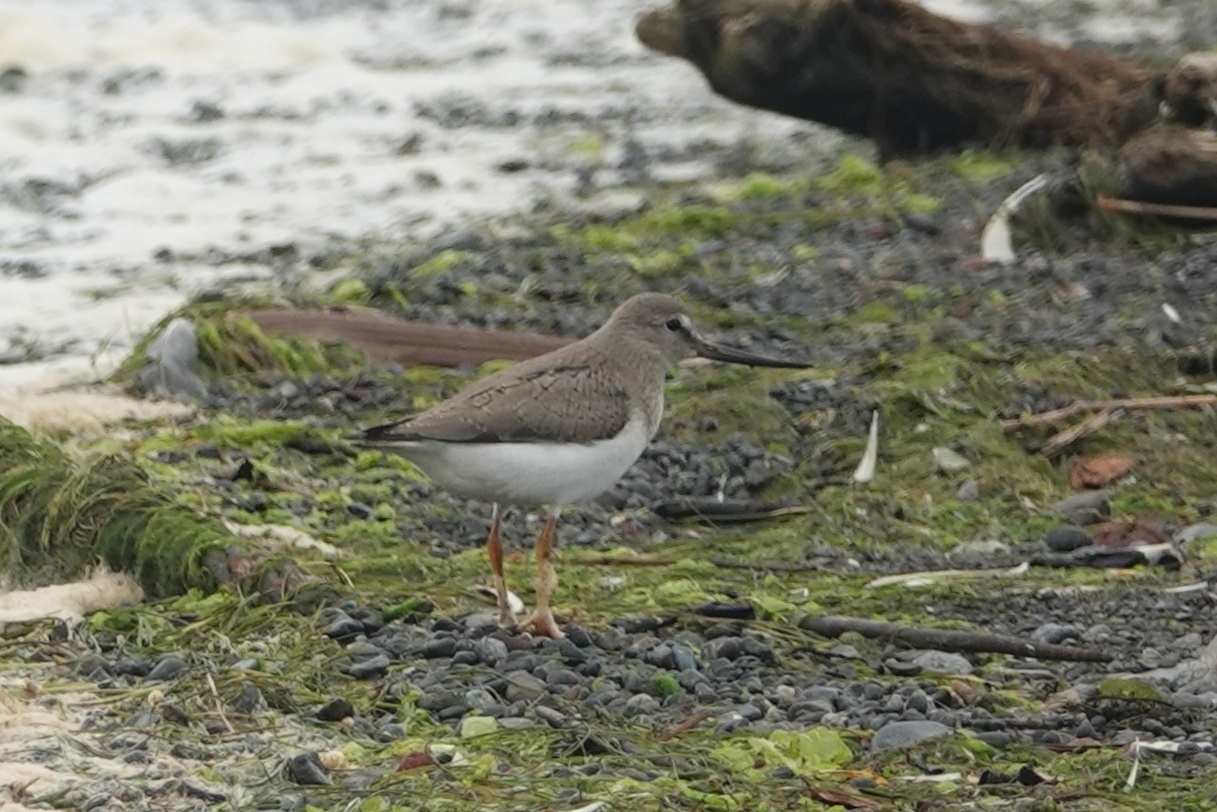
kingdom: Animalia
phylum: Chordata
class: Aves
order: Charadriiformes
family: Scolopacidae
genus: Xenus
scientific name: Xenus cinereus
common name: Terek sandpiper
